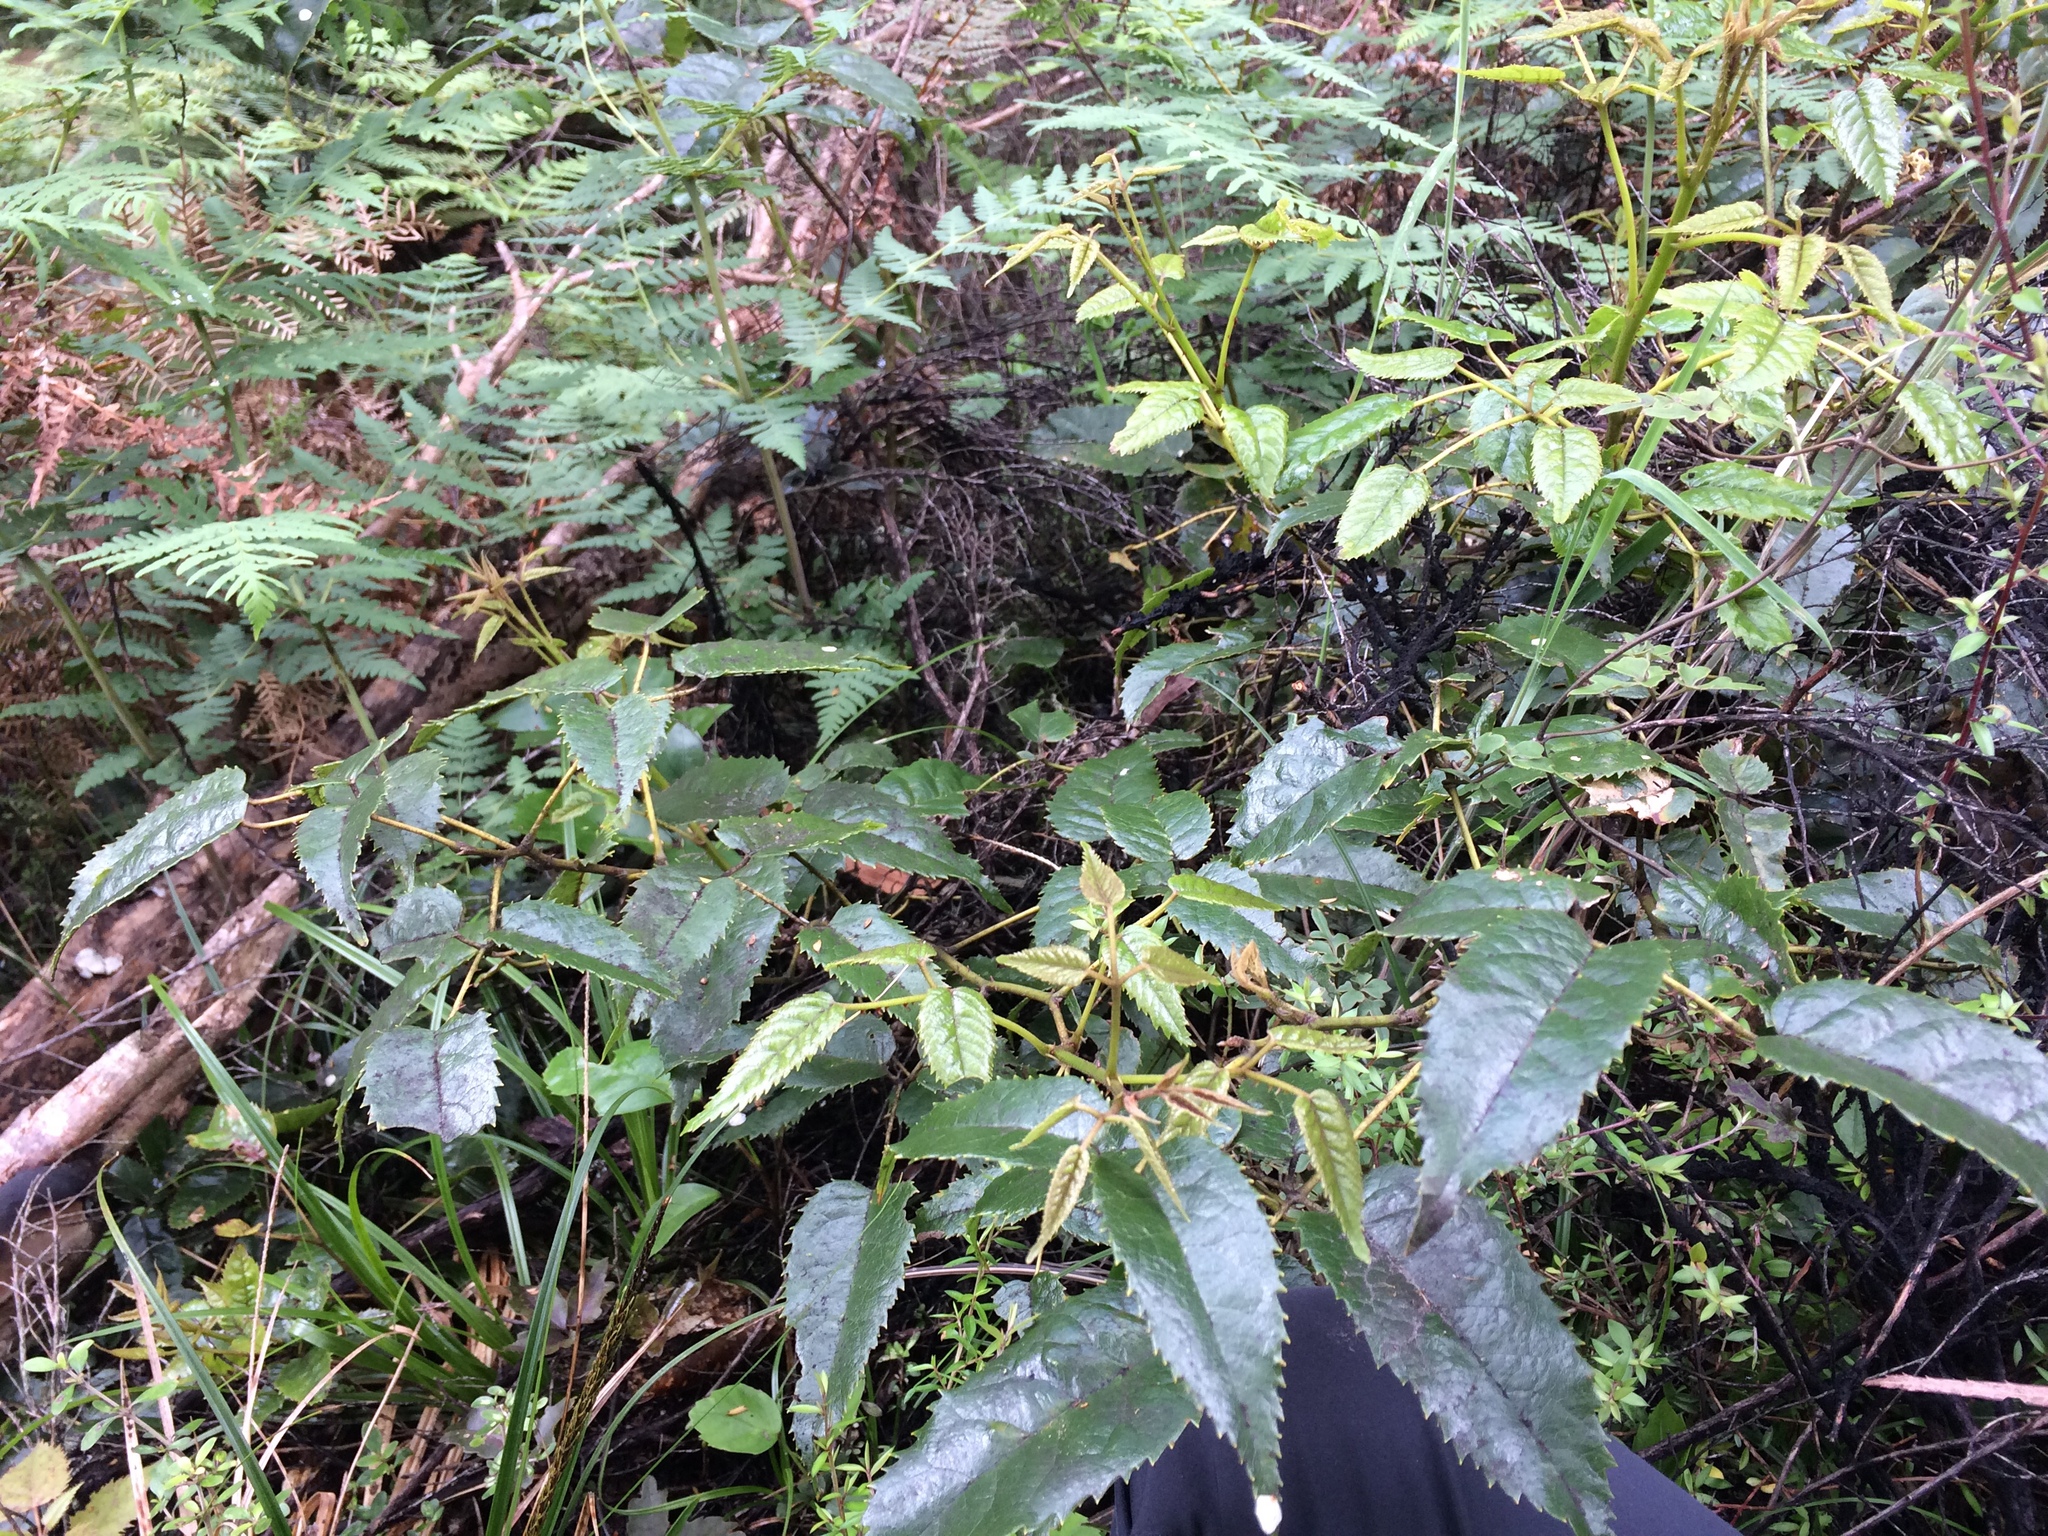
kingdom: Plantae
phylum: Tracheophyta
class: Magnoliopsida
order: Rosales
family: Rosaceae
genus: Rubus
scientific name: Rubus cissoides
